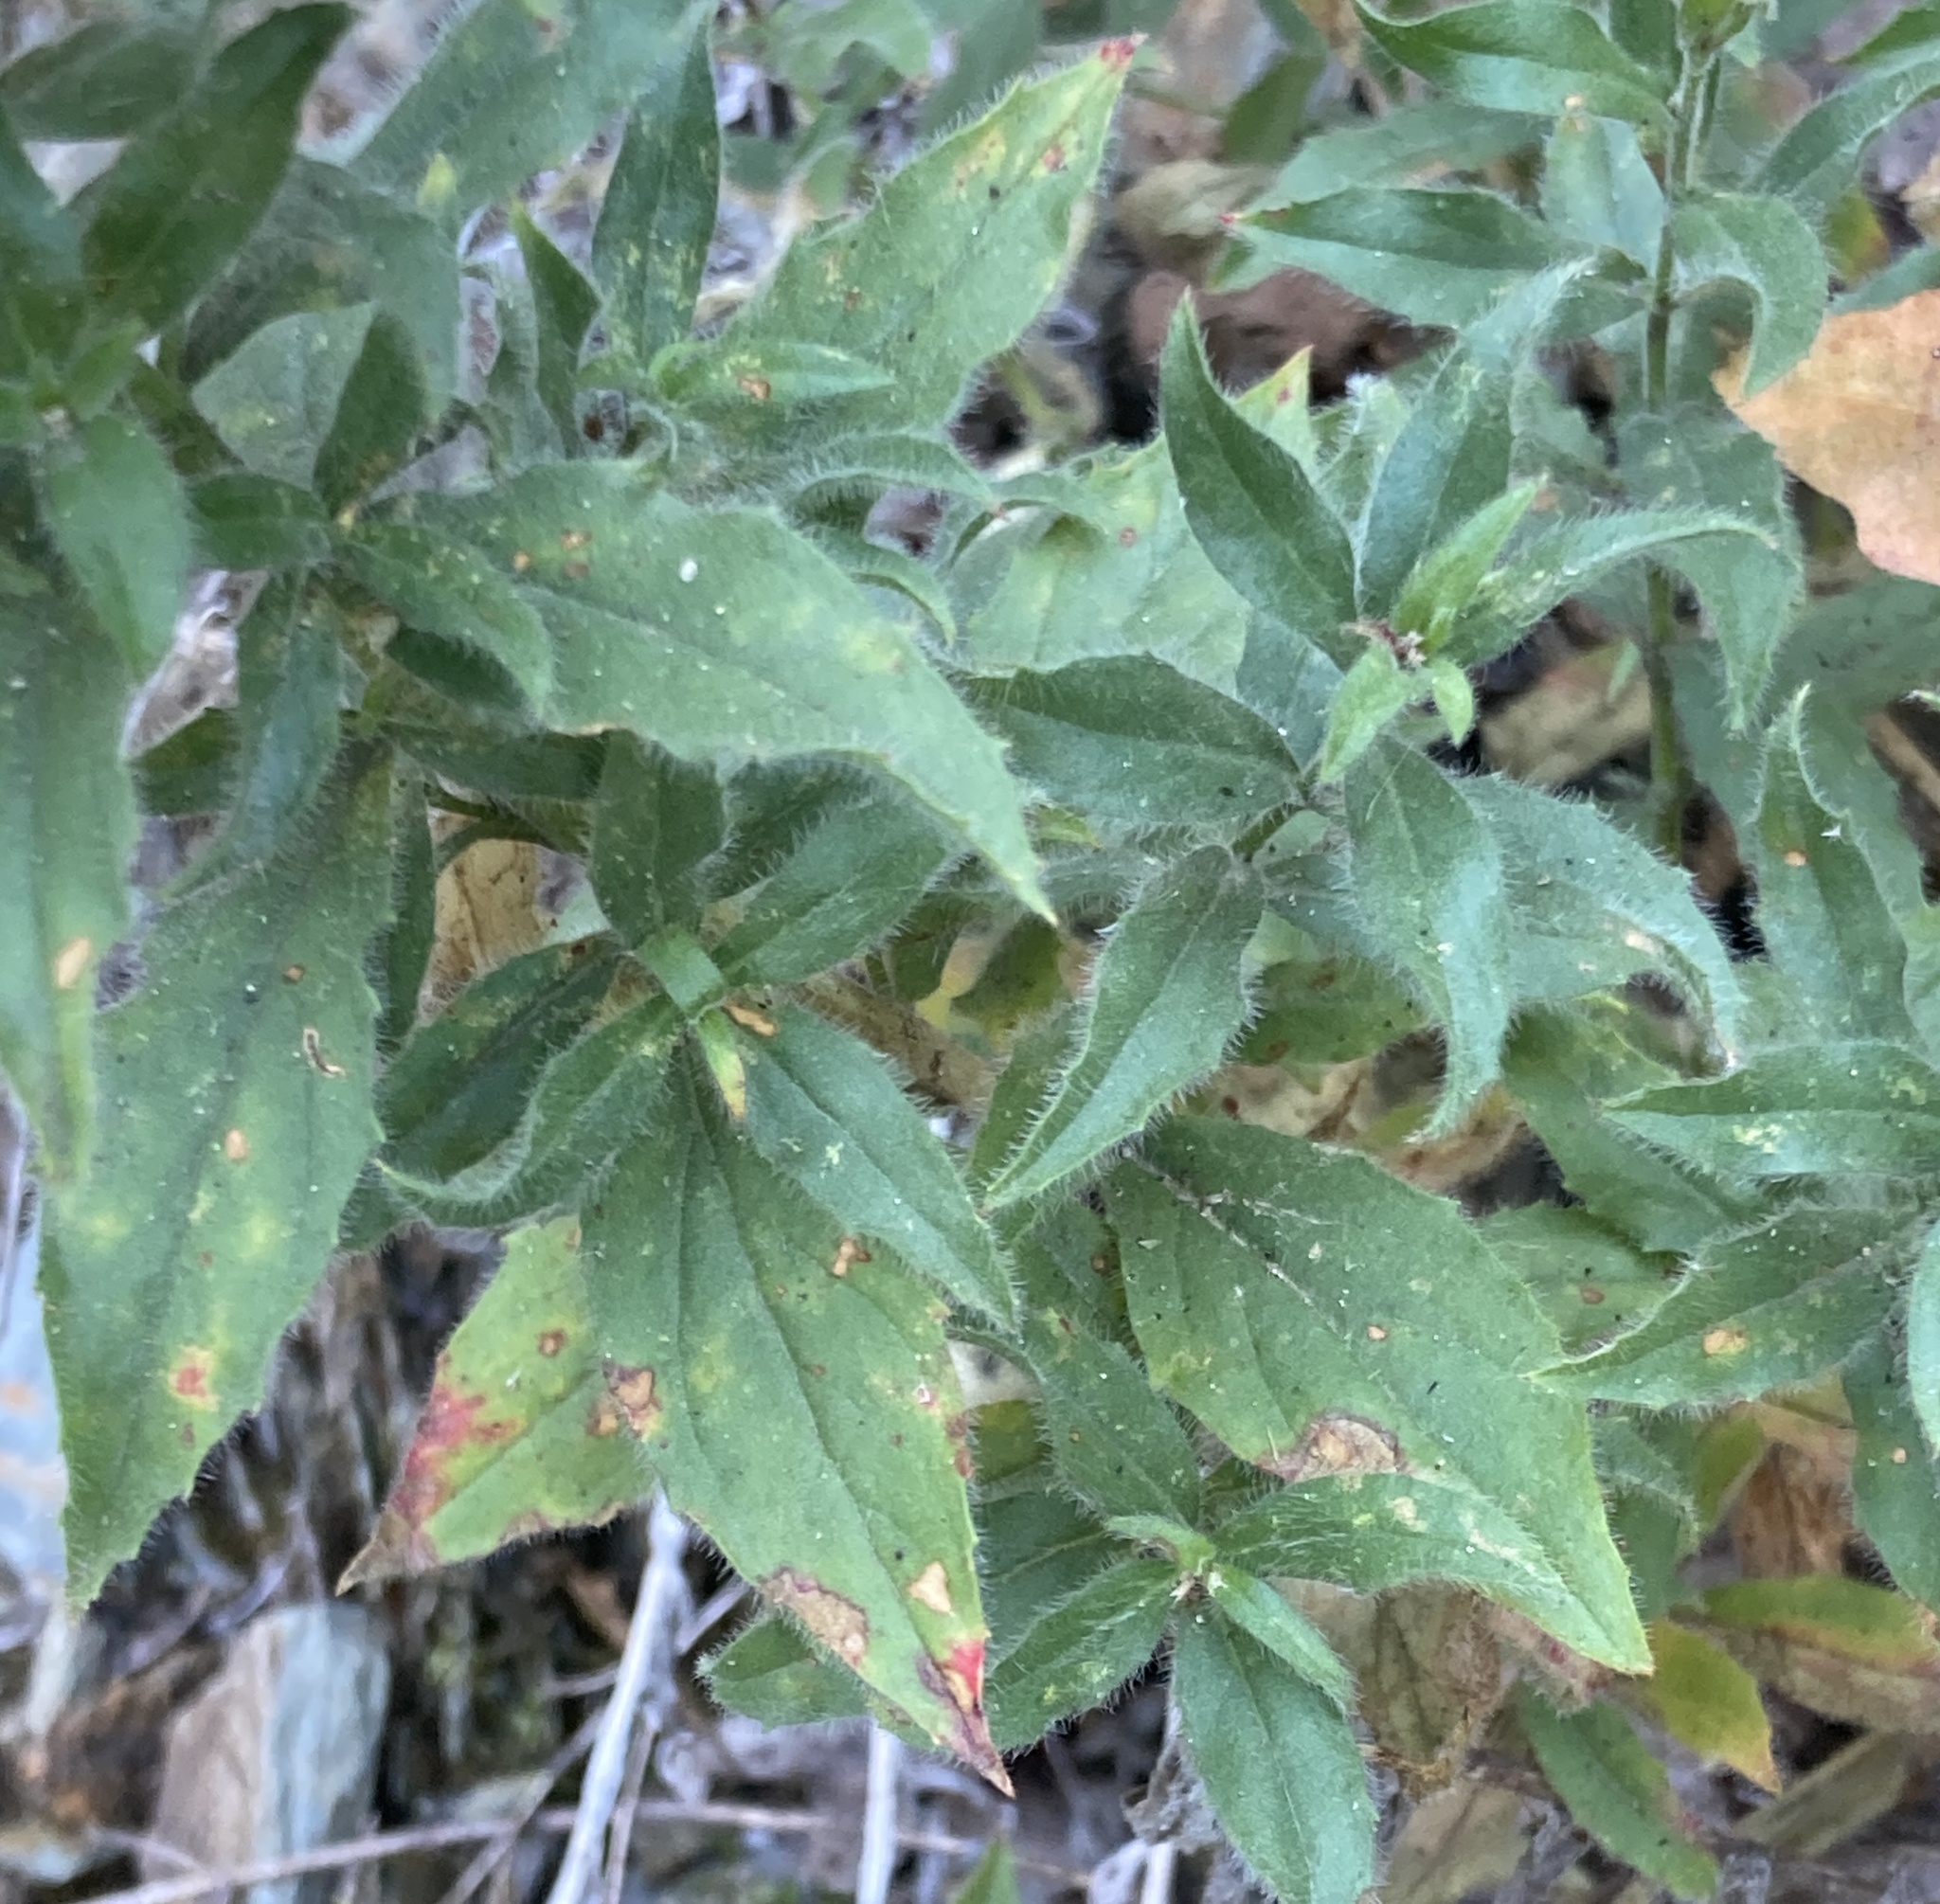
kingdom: Plantae
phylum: Tracheophyta
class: Magnoliopsida
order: Myrtales
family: Onagraceae
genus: Epilobium
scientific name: Epilobium canum
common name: California-fuchsia
